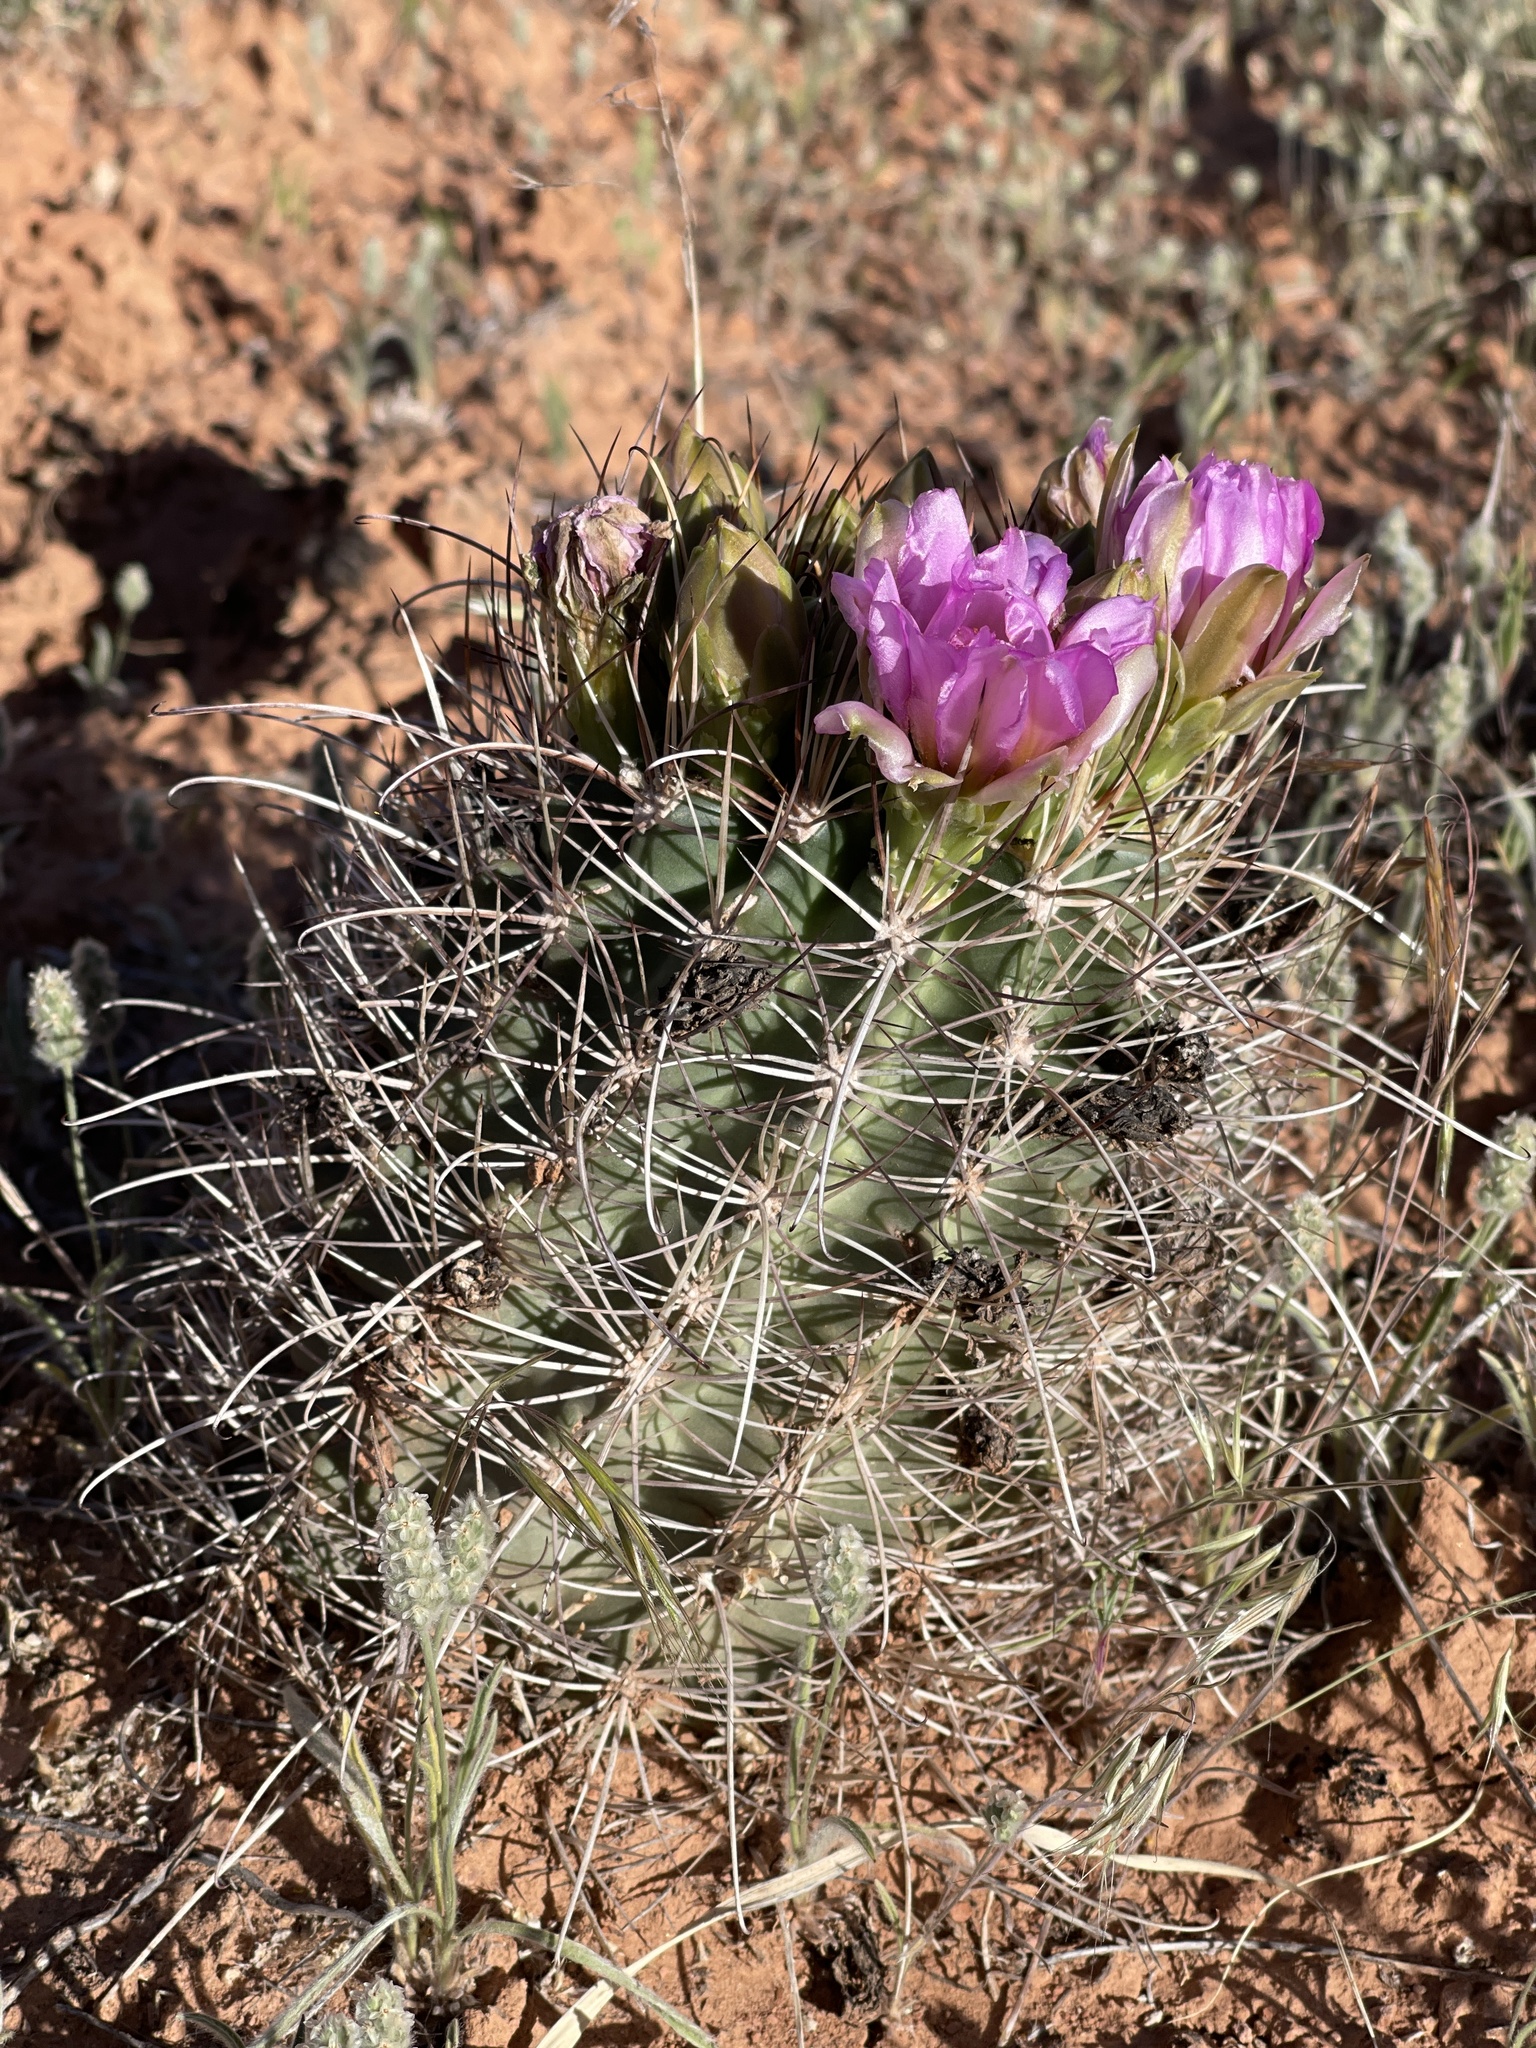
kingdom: Plantae
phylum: Tracheophyta
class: Magnoliopsida
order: Caryophyllales
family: Cactaceae
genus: Sclerocactus
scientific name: Sclerocactus parviflorus
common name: Small-flower fishhook cactus
